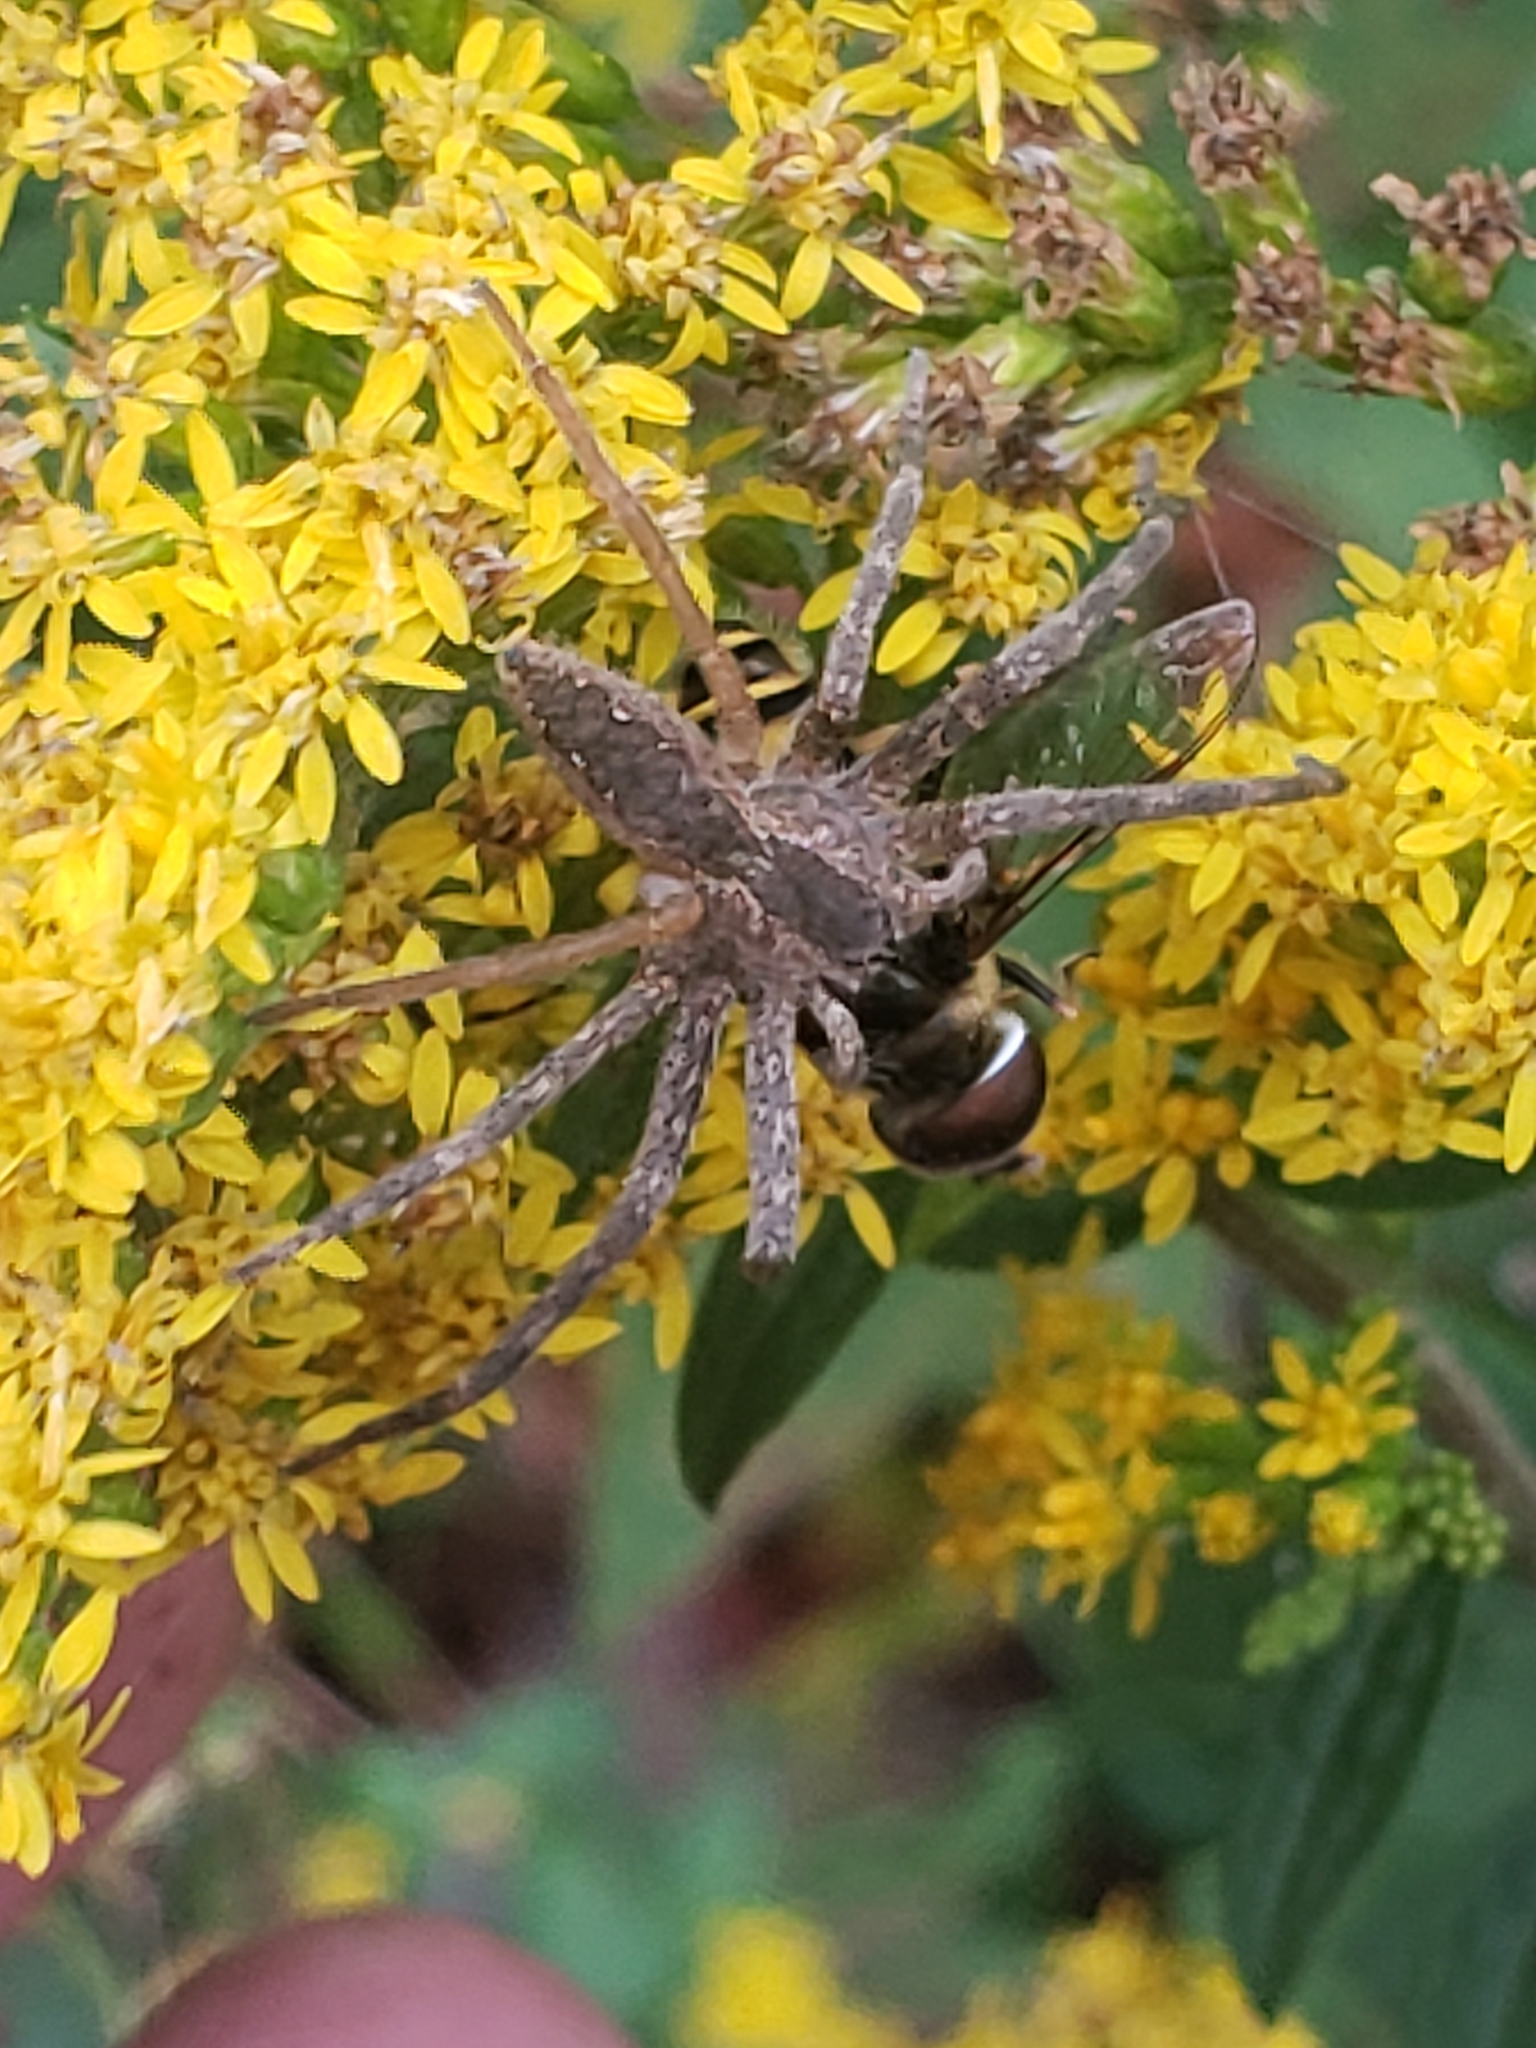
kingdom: Animalia
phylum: Arthropoda
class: Arachnida
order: Araneae
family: Pisauridae
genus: Pisaurina
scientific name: Pisaurina mira
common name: American nursery web spider
